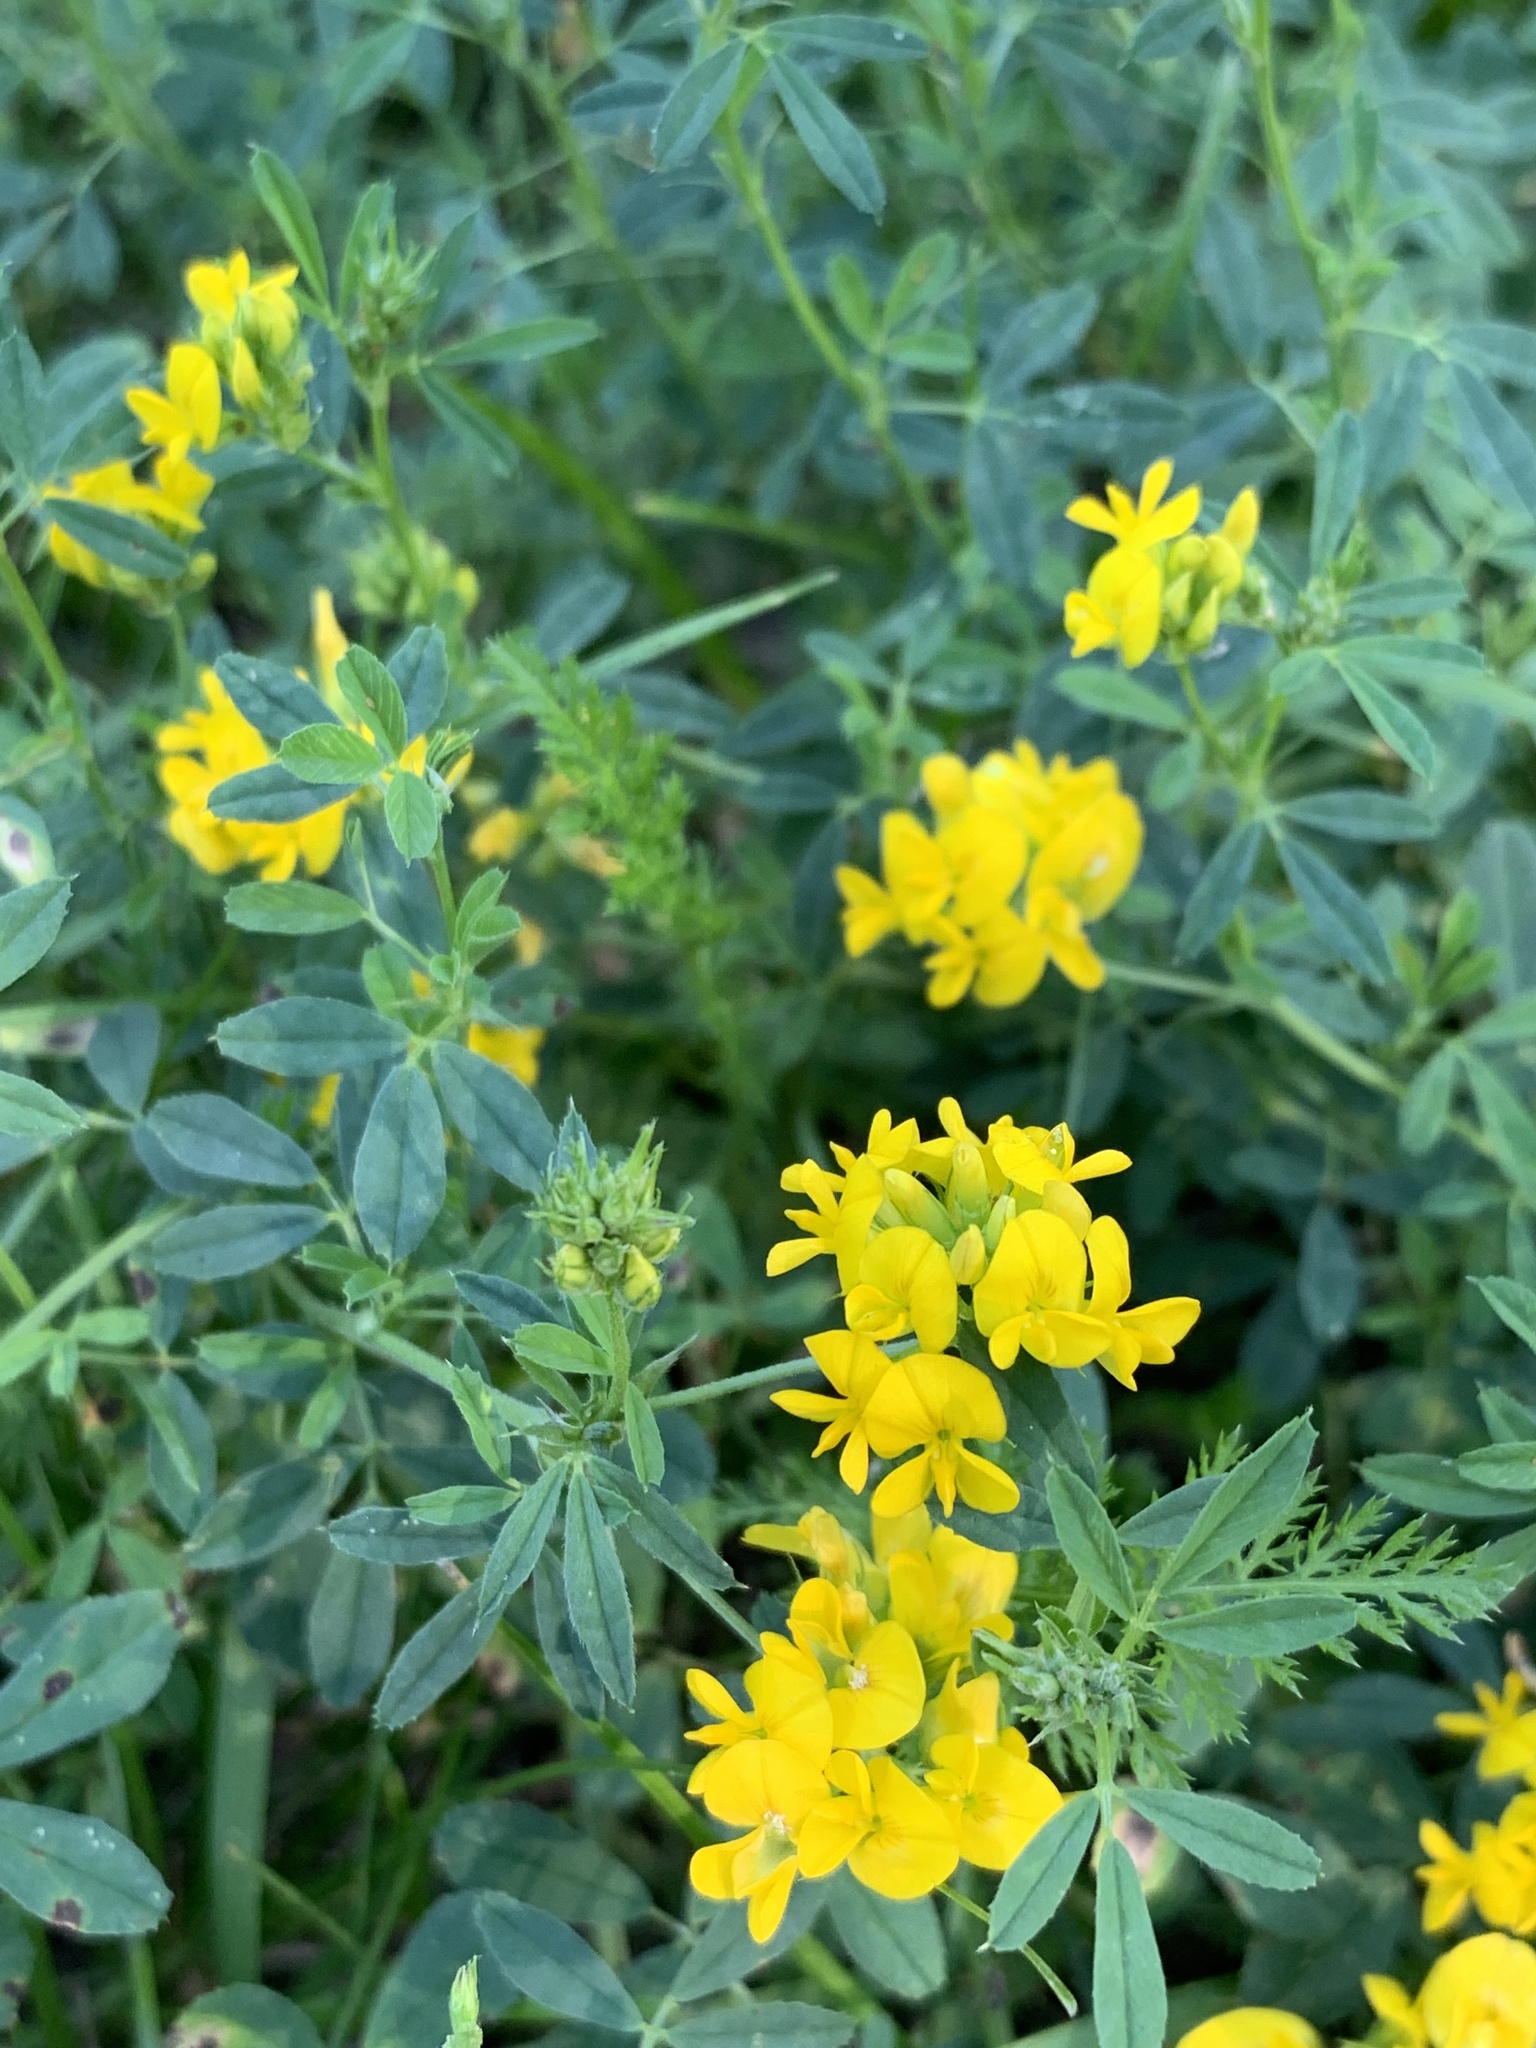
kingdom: Plantae
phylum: Tracheophyta
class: Magnoliopsida
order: Fabales
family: Fabaceae
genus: Medicago
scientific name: Medicago falcata
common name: Sickle medick
